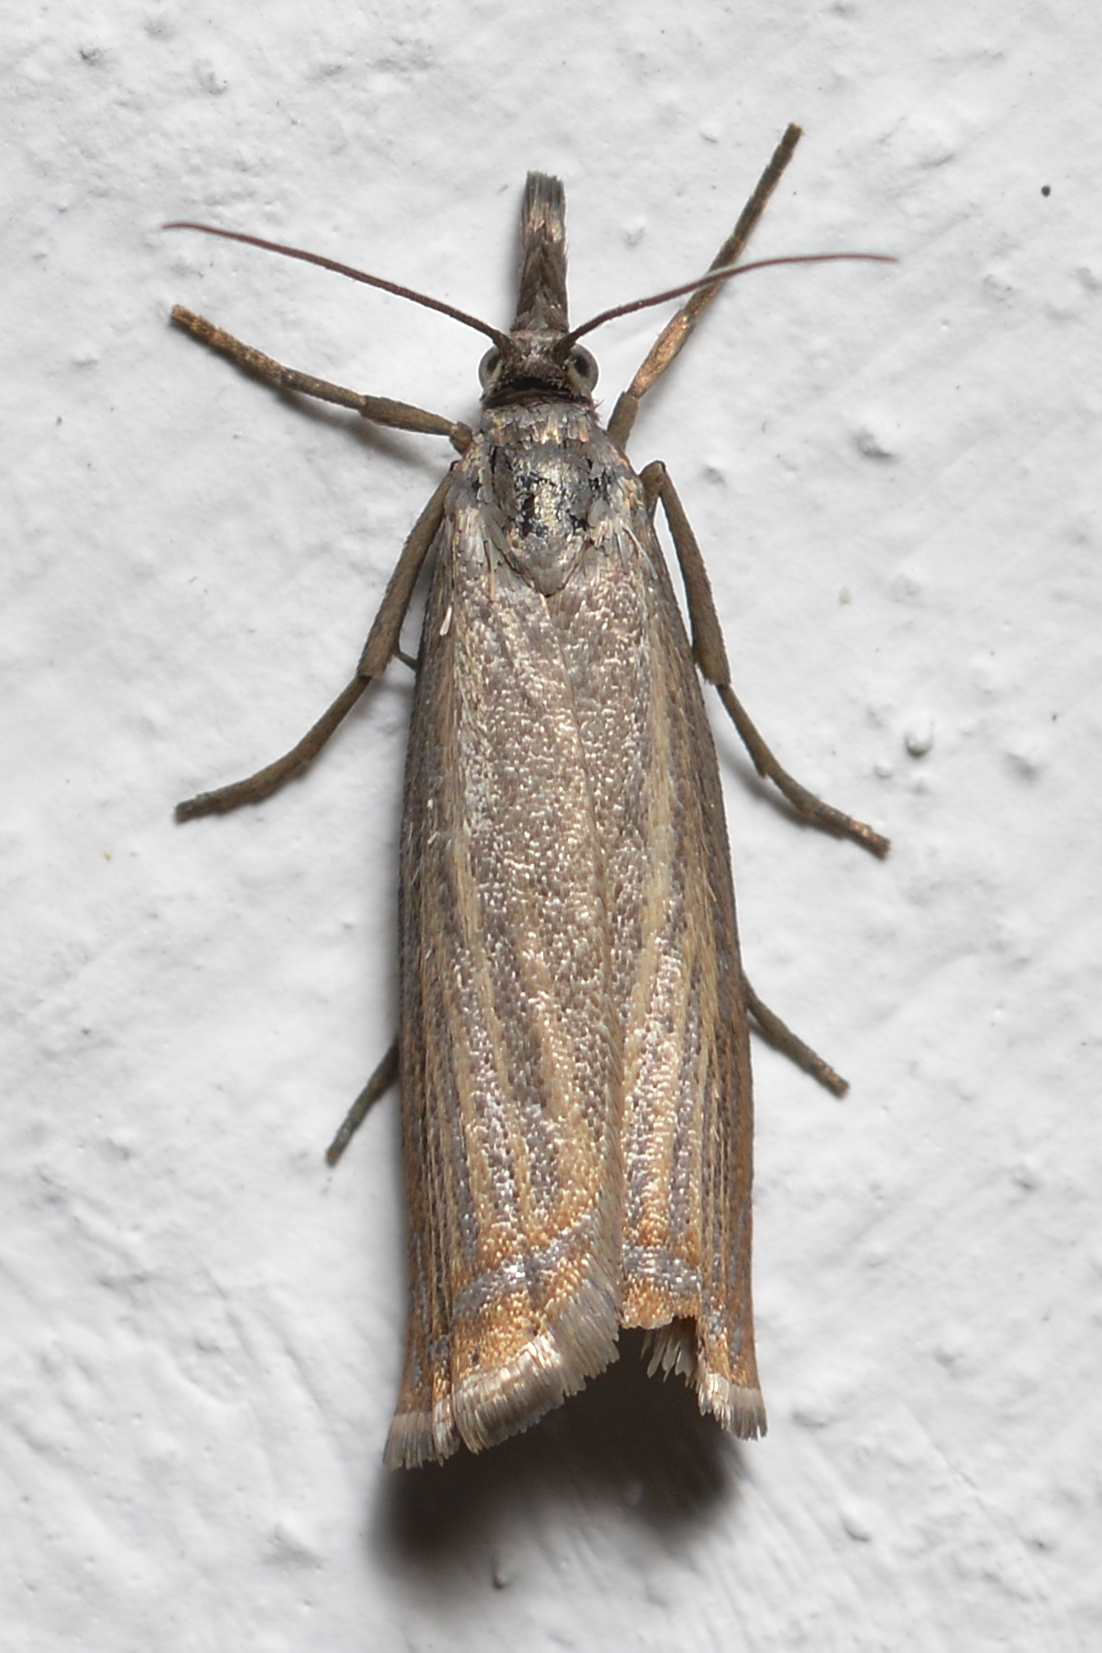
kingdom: Animalia
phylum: Arthropoda
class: Insecta
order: Lepidoptera
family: Crambidae
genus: Chrysoteuchia
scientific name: Chrysoteuchia culmella
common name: Garden grass-veneer
